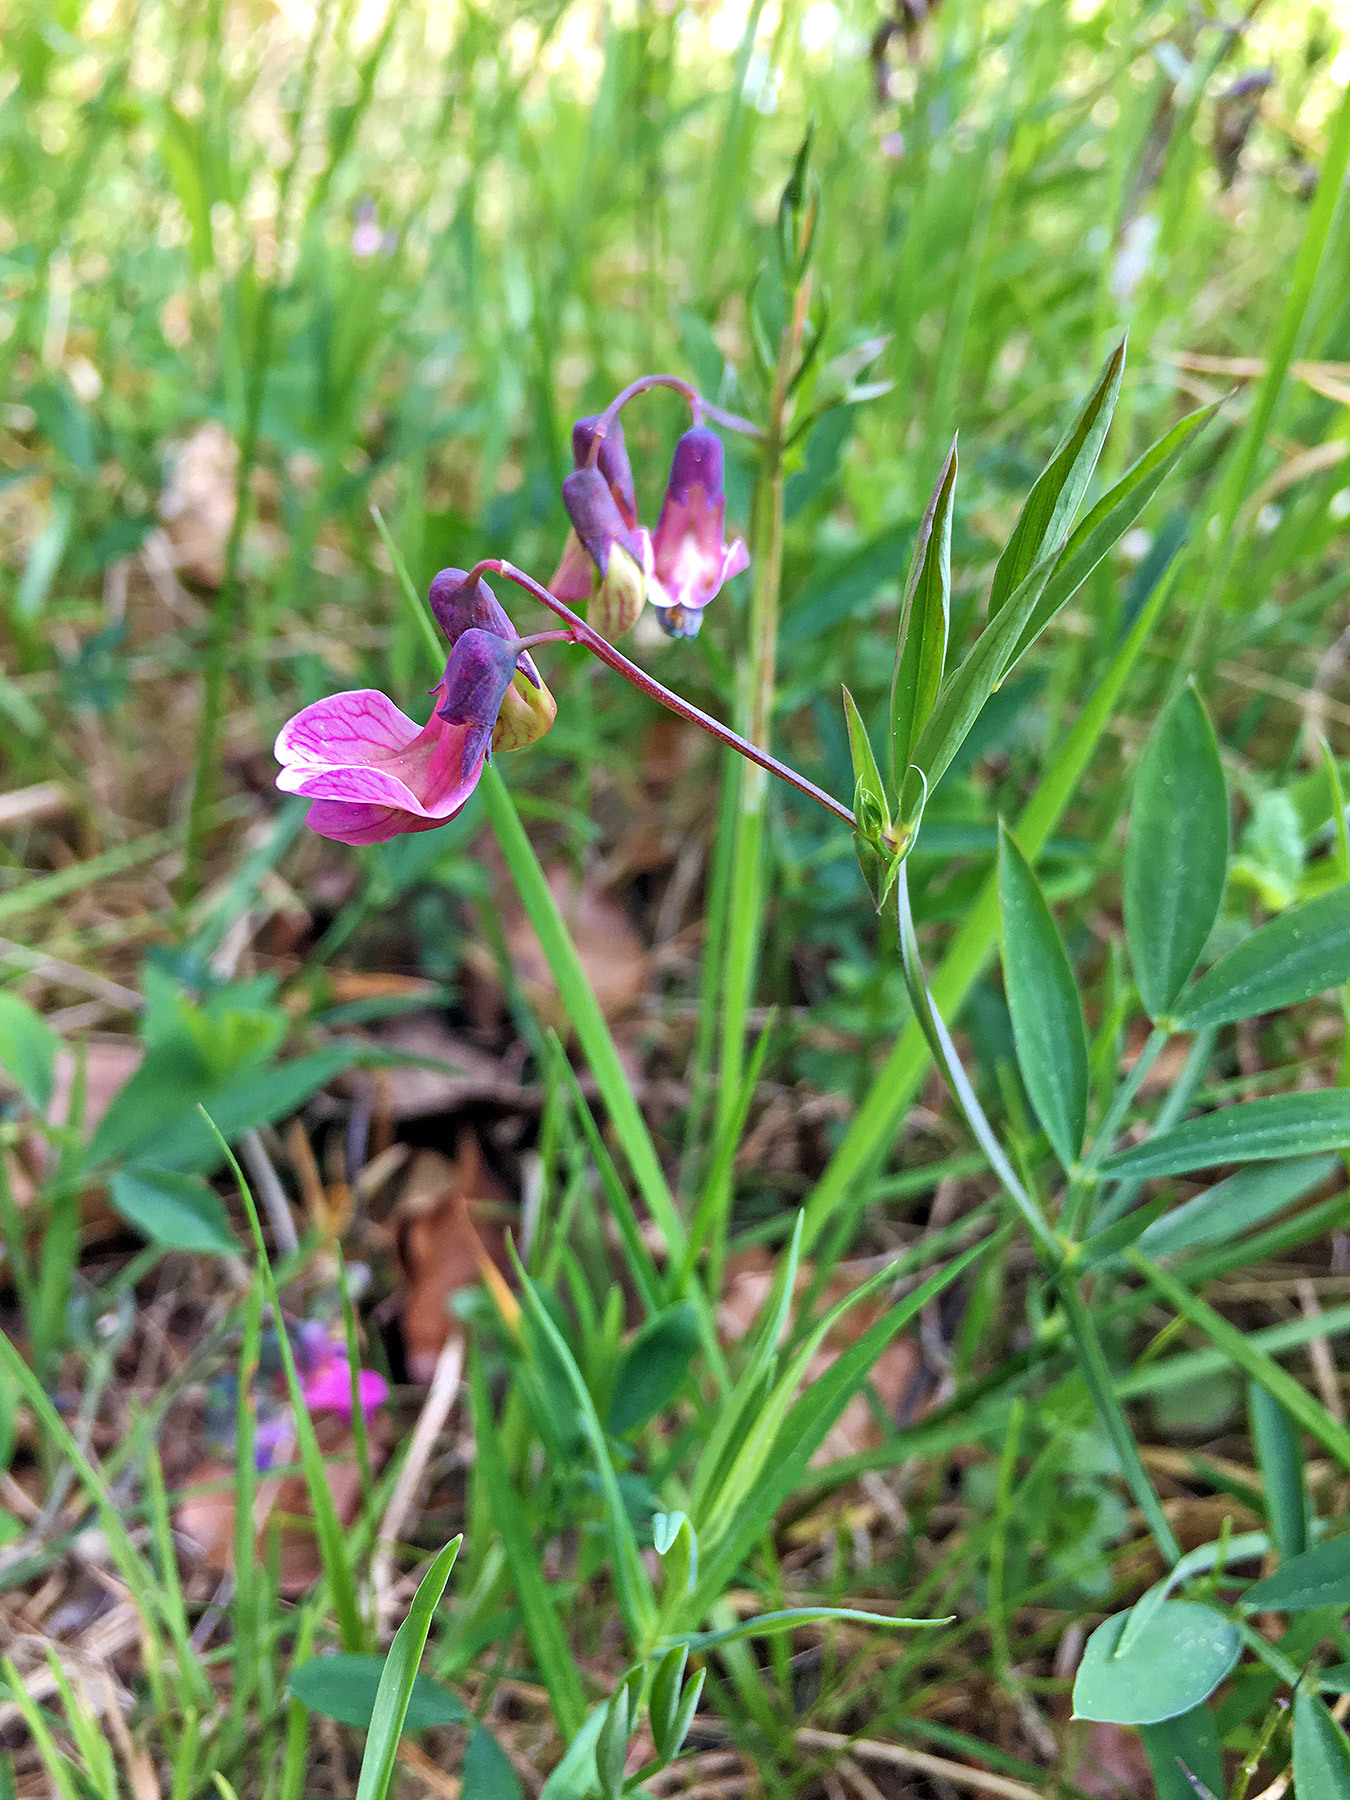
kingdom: Plantae
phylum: Tracheophyta
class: Magnoliopsida
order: Fabales
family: Fabaceae
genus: Lathyrus
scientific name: Lathyrus linifolius
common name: Bitter-vetch
